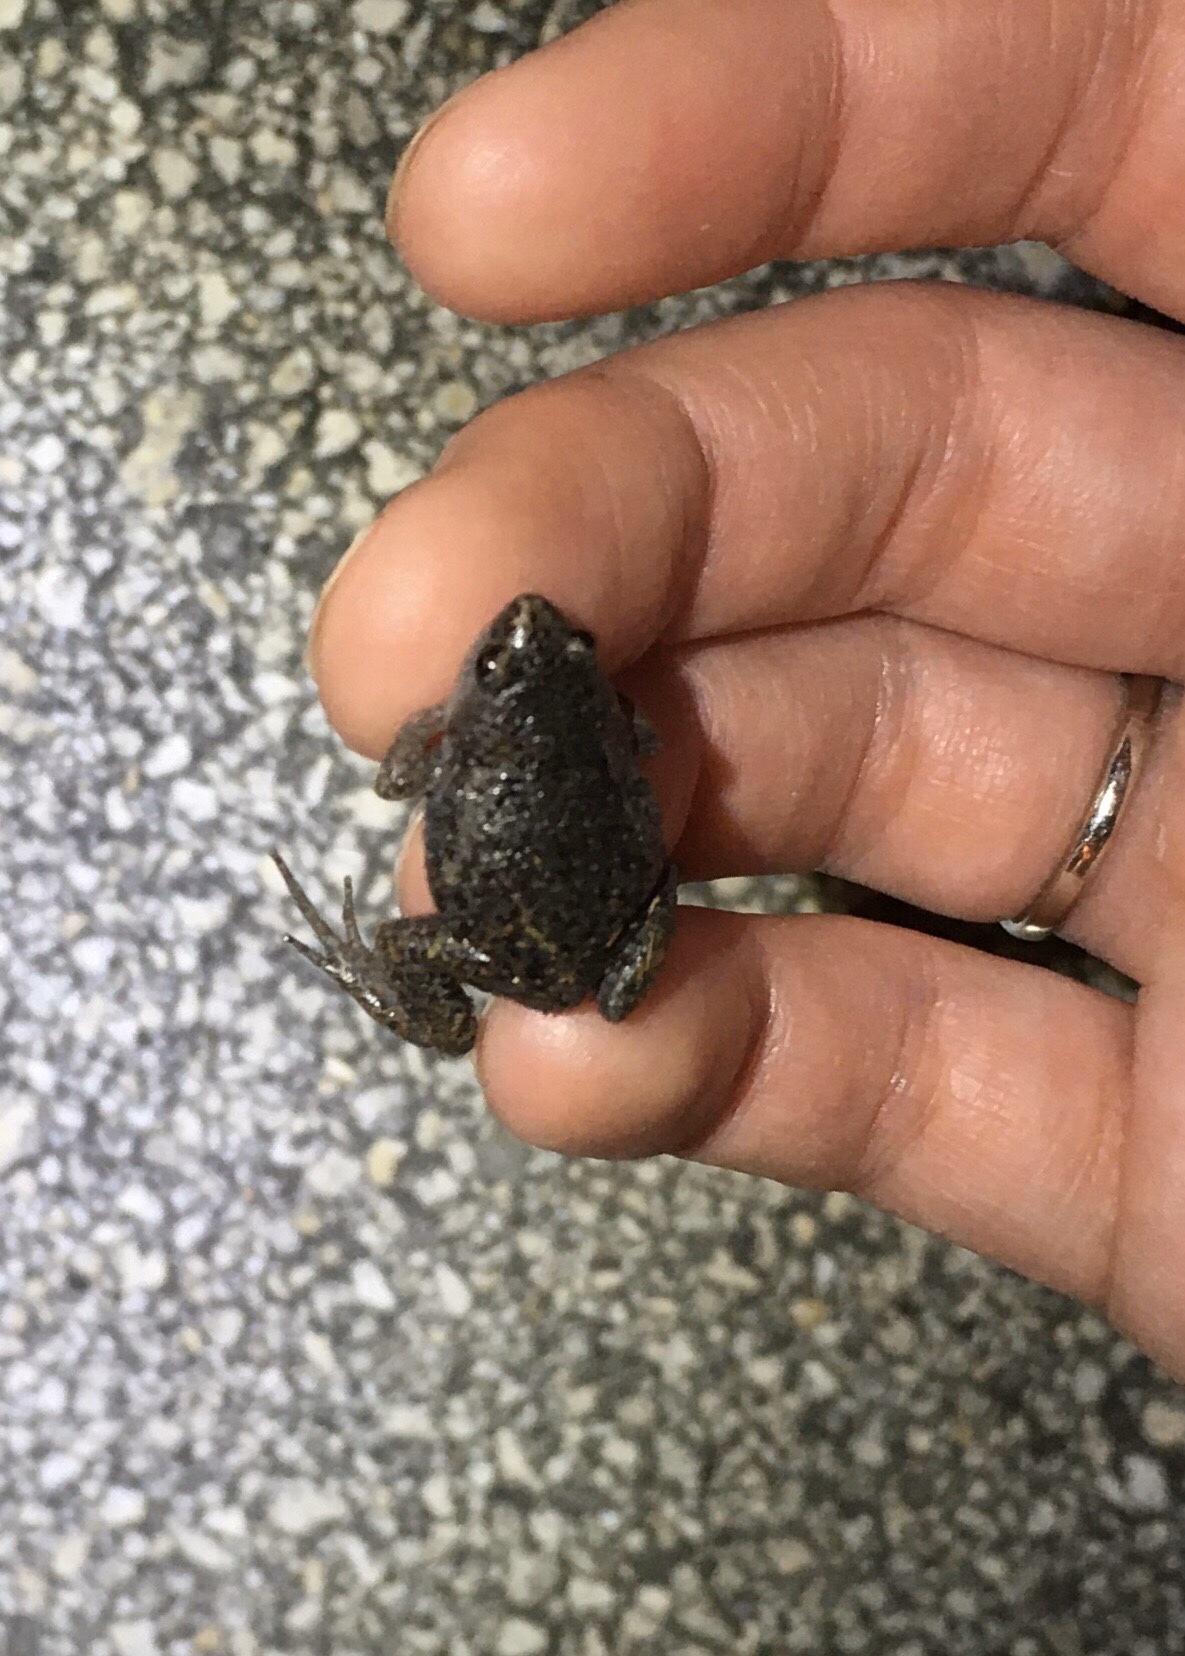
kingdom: Animalia
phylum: Chordata
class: Amphibia
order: Anura
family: Microhylidae
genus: Gastrophryne
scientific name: Gastrophryne carolinensis
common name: Eastern narrowmouth toad
